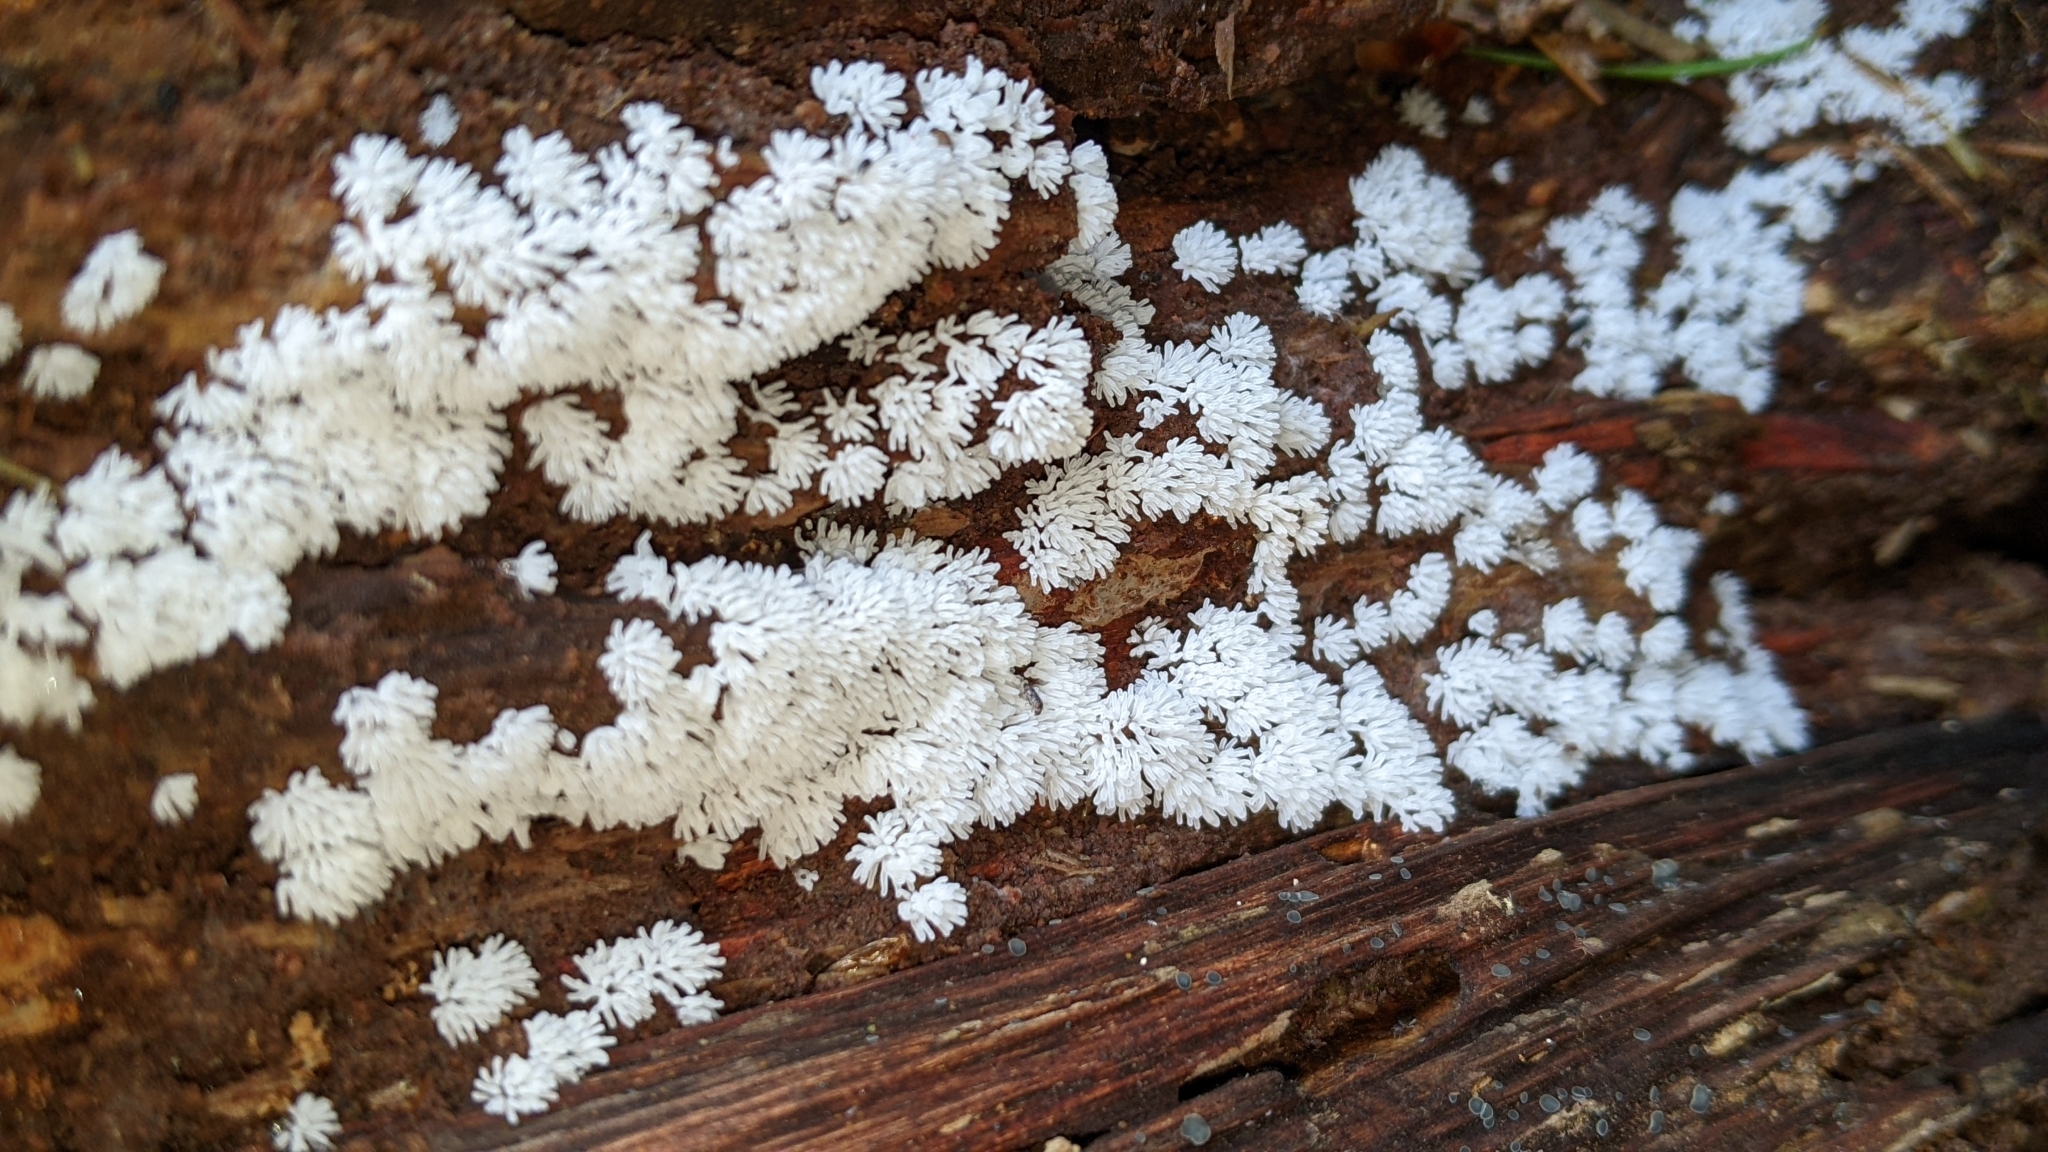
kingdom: Protozoa
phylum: Mycetozoa
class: Protosteliomycetes
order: Ceratiomyxales
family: Ceratiomyxaceae
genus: Ceratiomyxa
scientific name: Ceratiomyxa fruticulosa
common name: Honeycomb coral slime mold
